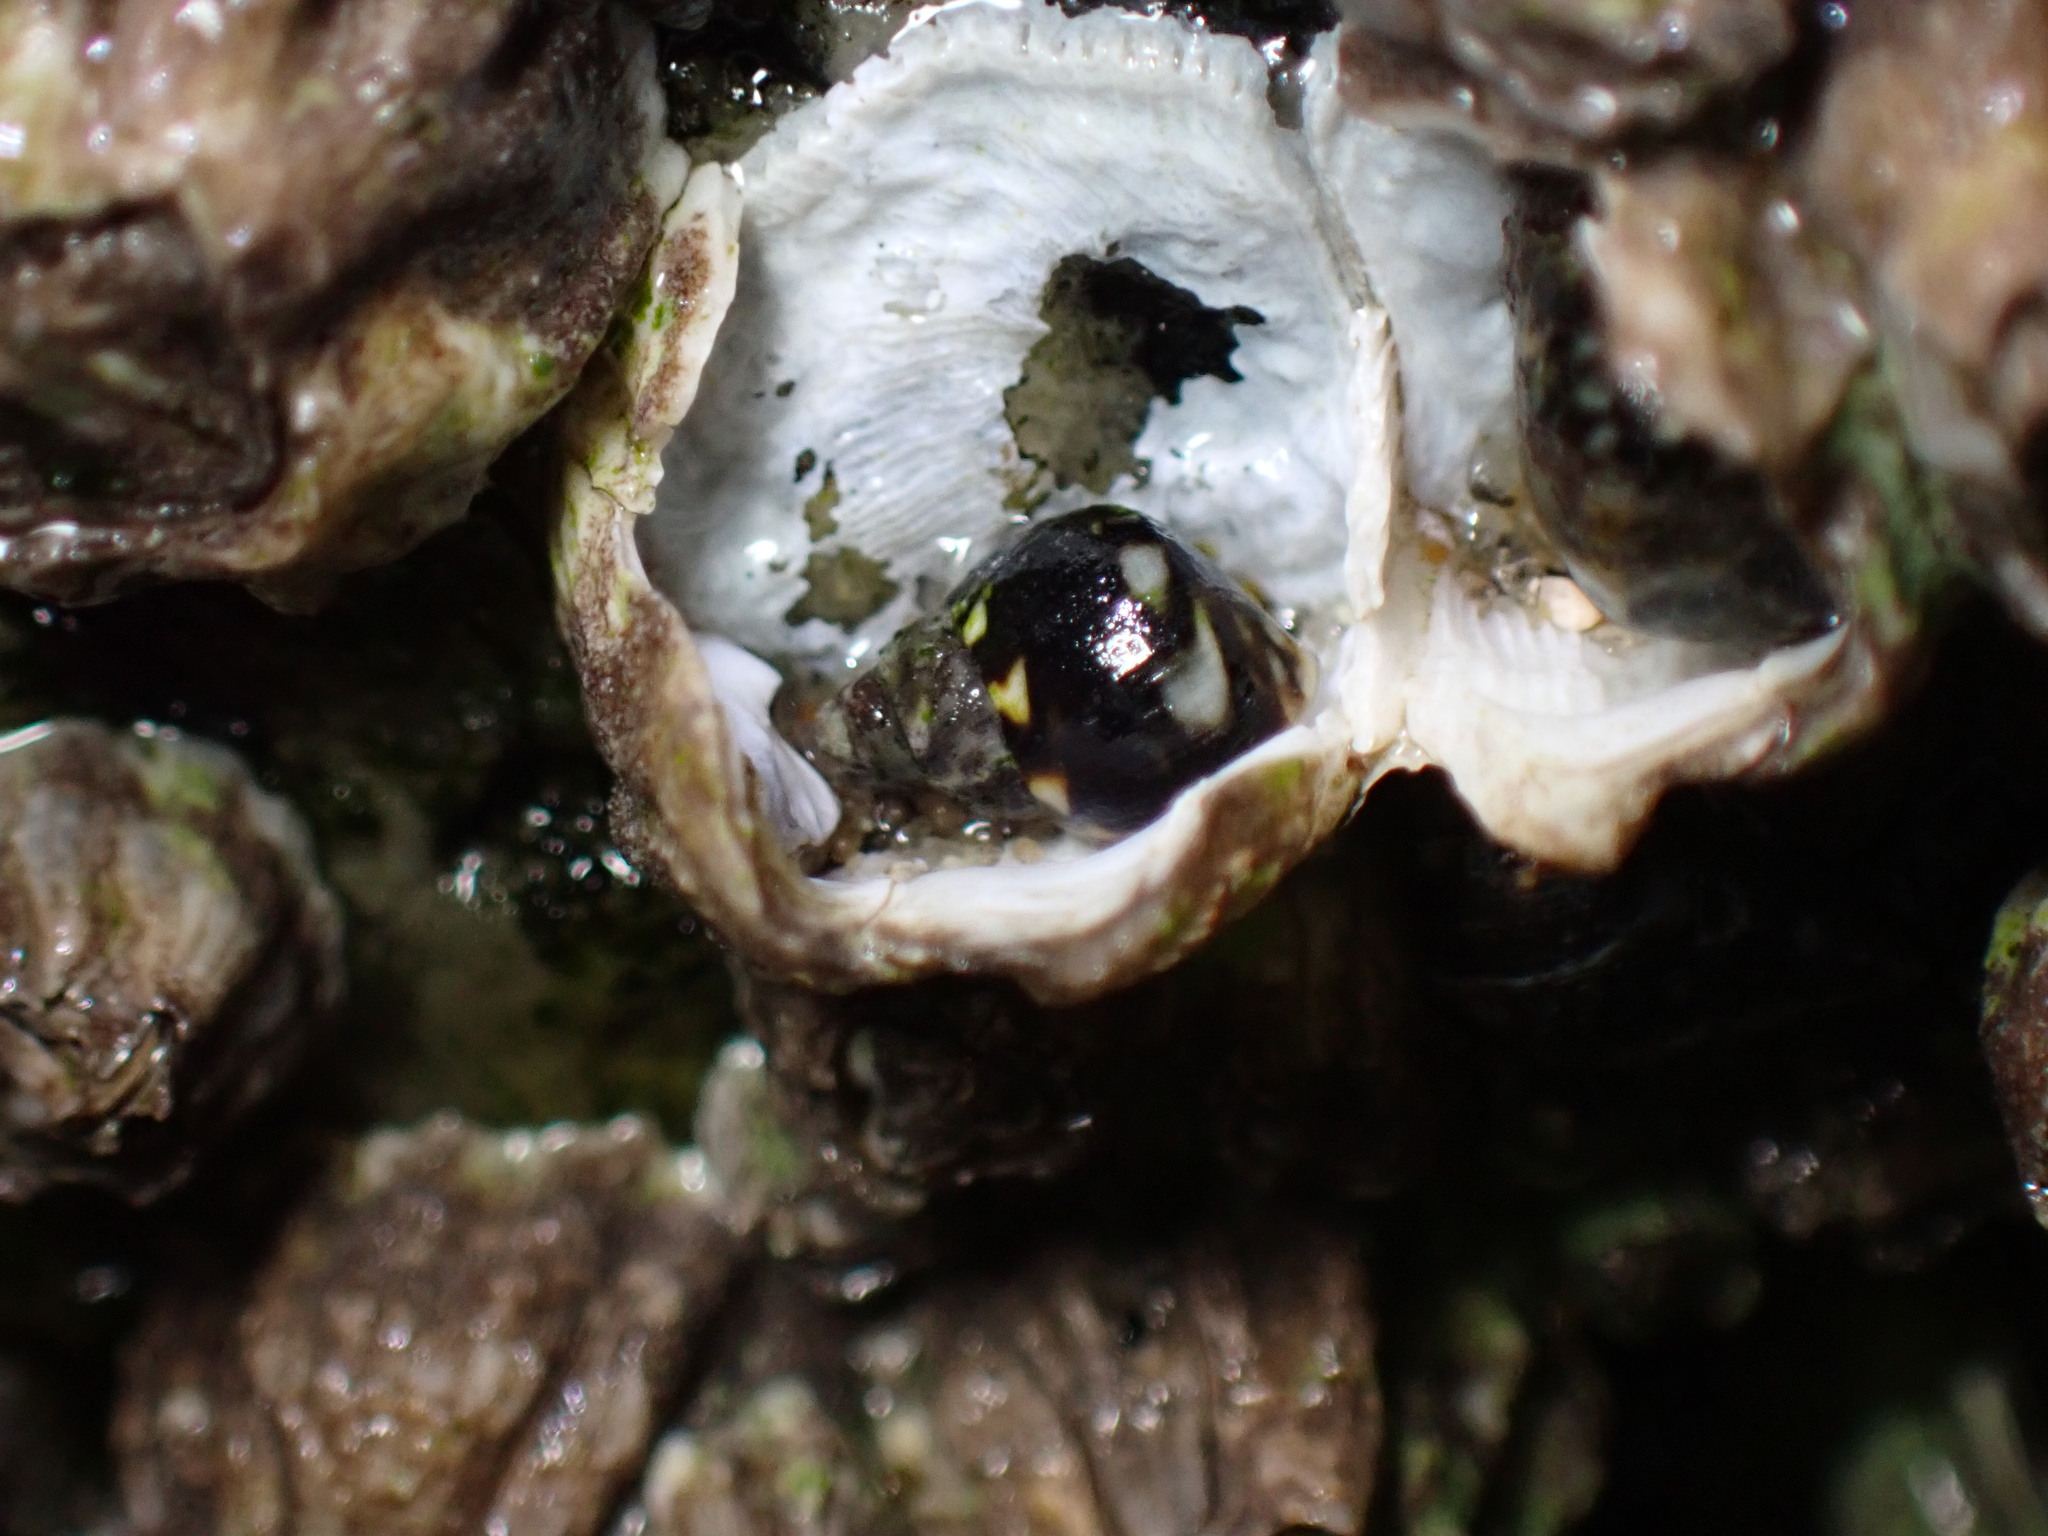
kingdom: Animalia
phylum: Mollusca
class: Gastropoda
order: Littorinimorpha
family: Littorinidae
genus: Littorina
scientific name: Littorina scutulata
